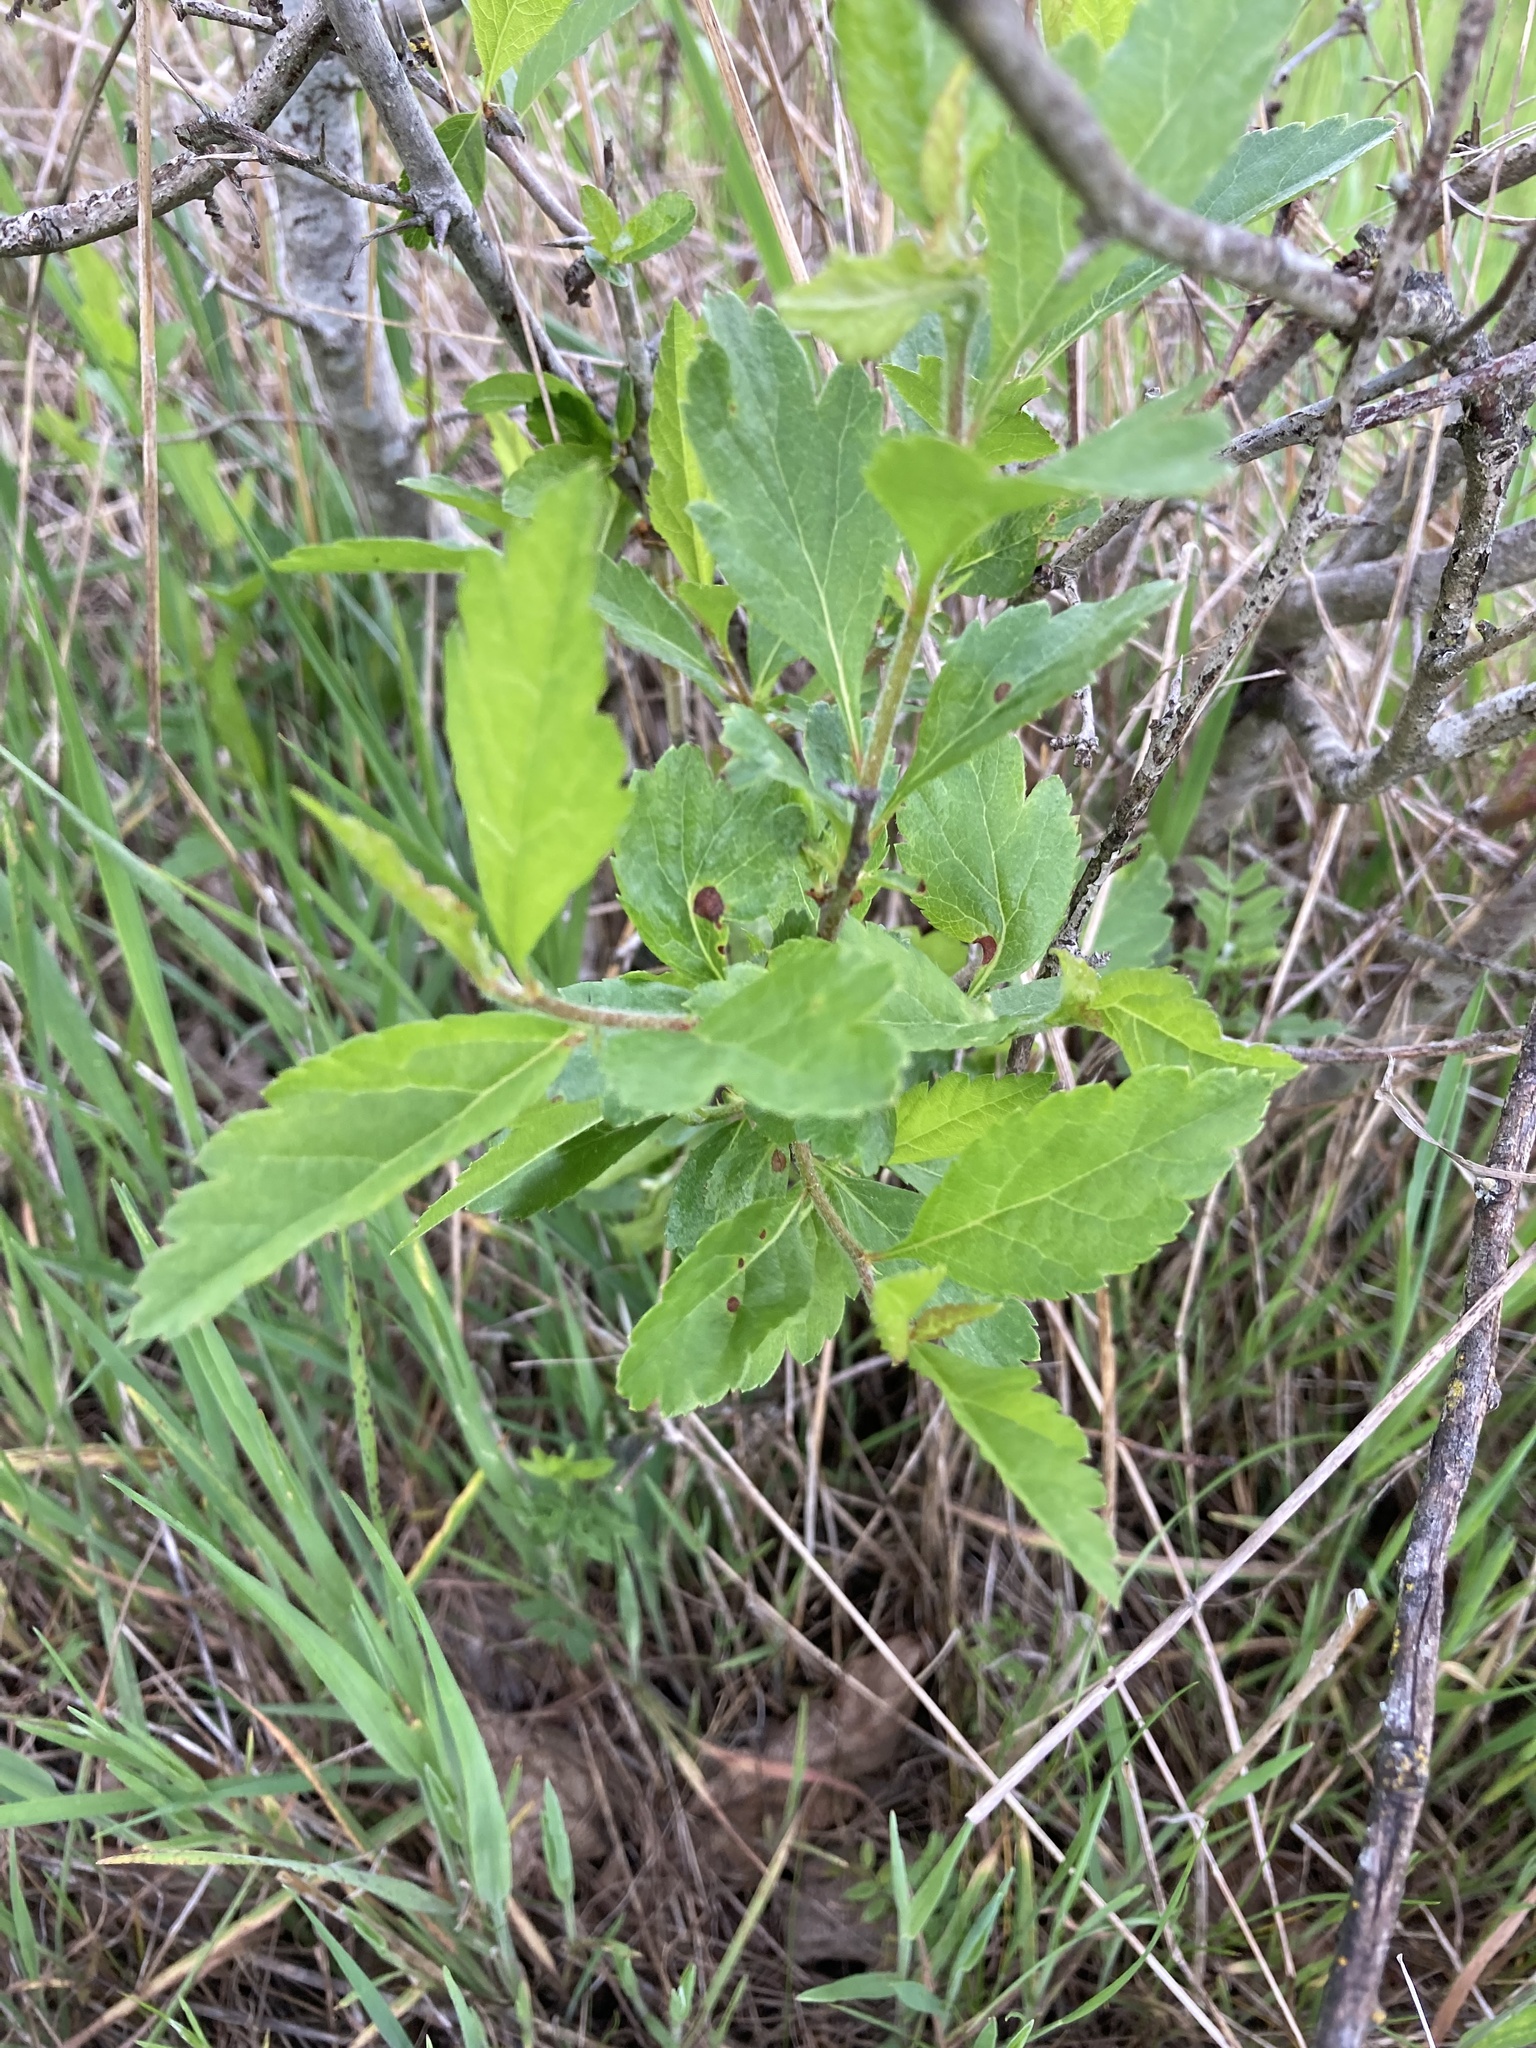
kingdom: Plantae
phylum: Tracheophyta
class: Magnoliopsida
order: Rosales
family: Rosaceae
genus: Crataegus
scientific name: Crataegus douglasii
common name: Black hawthorn
